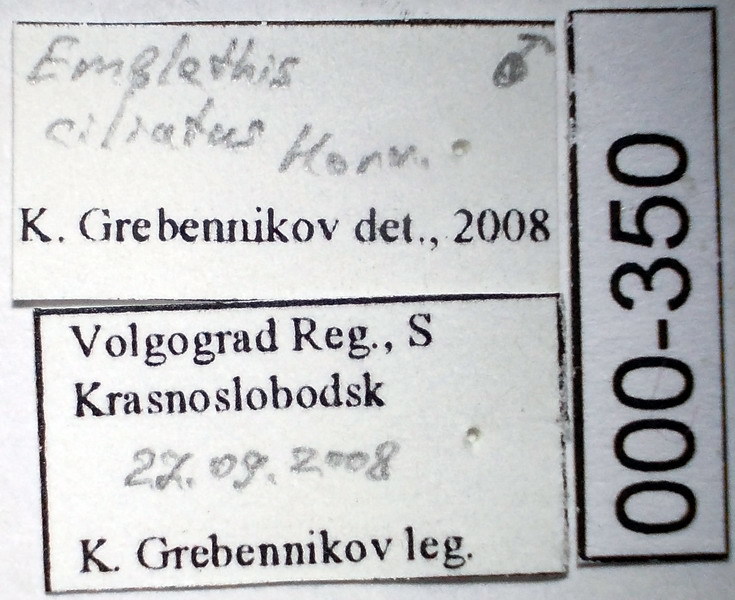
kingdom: Animalia
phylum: Arthropoda
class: Insecta
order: Hemiptera
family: Rhyparochromidae
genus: Emblethis
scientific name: Emblethis ciliatus
